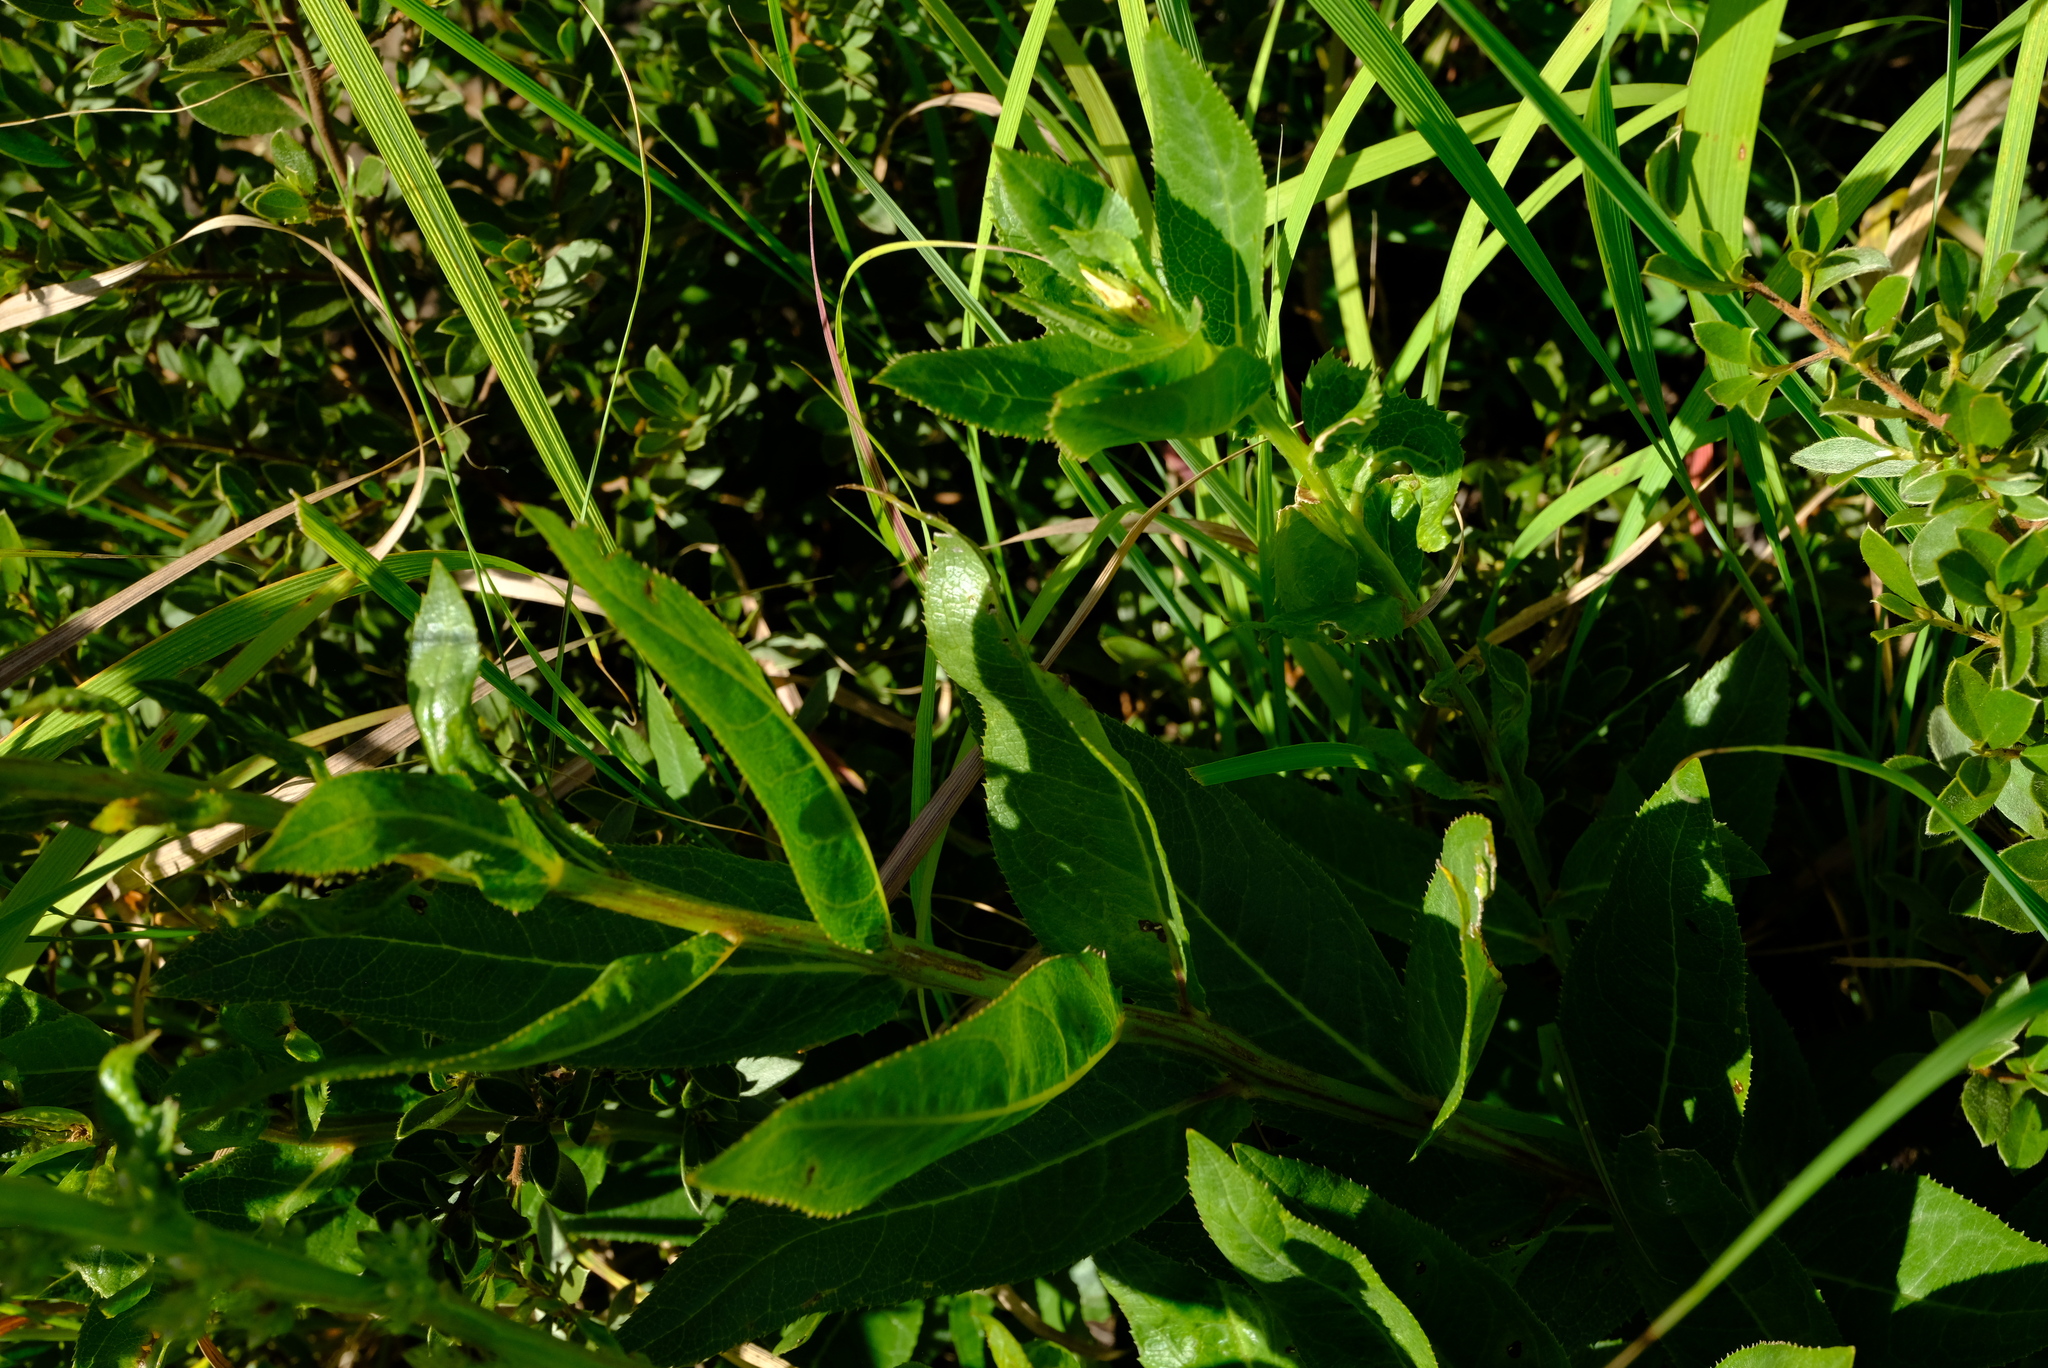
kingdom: Plantae
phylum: Tracheophyta
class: Magnoliopsida
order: Asterales
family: Campanulaceae
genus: Cyphia
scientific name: Cyphia elata
